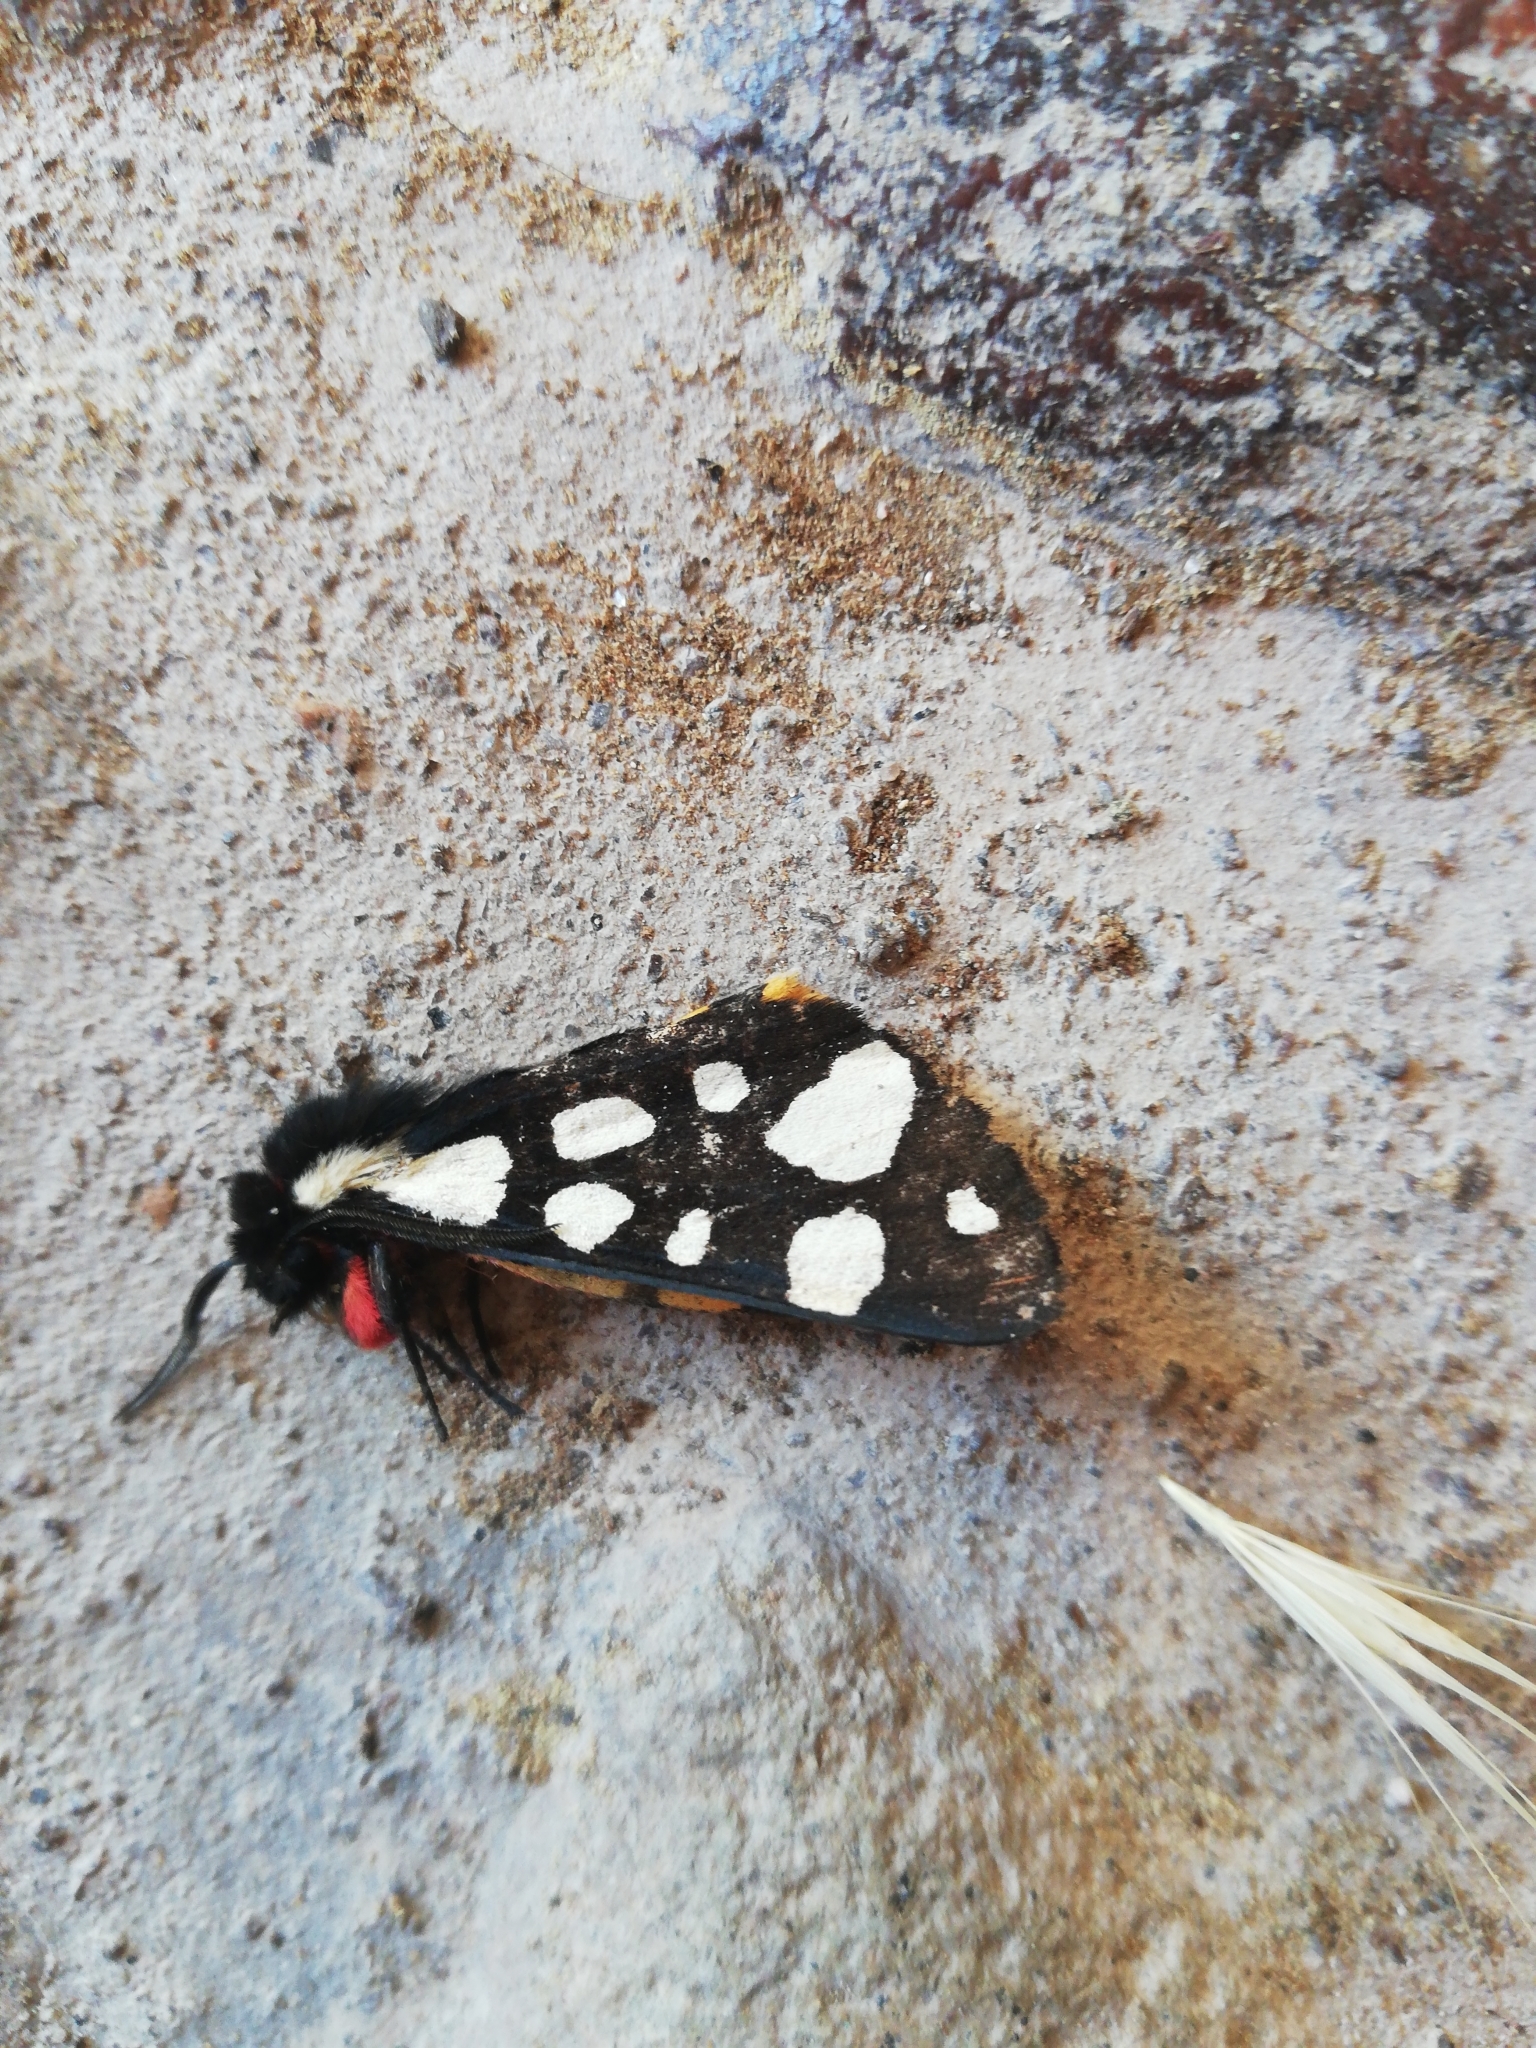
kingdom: Animalia
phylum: Arthropoda
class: Insecta
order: Lepidoptera
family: Erebidae
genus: Epicallia
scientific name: Epicallia villica
